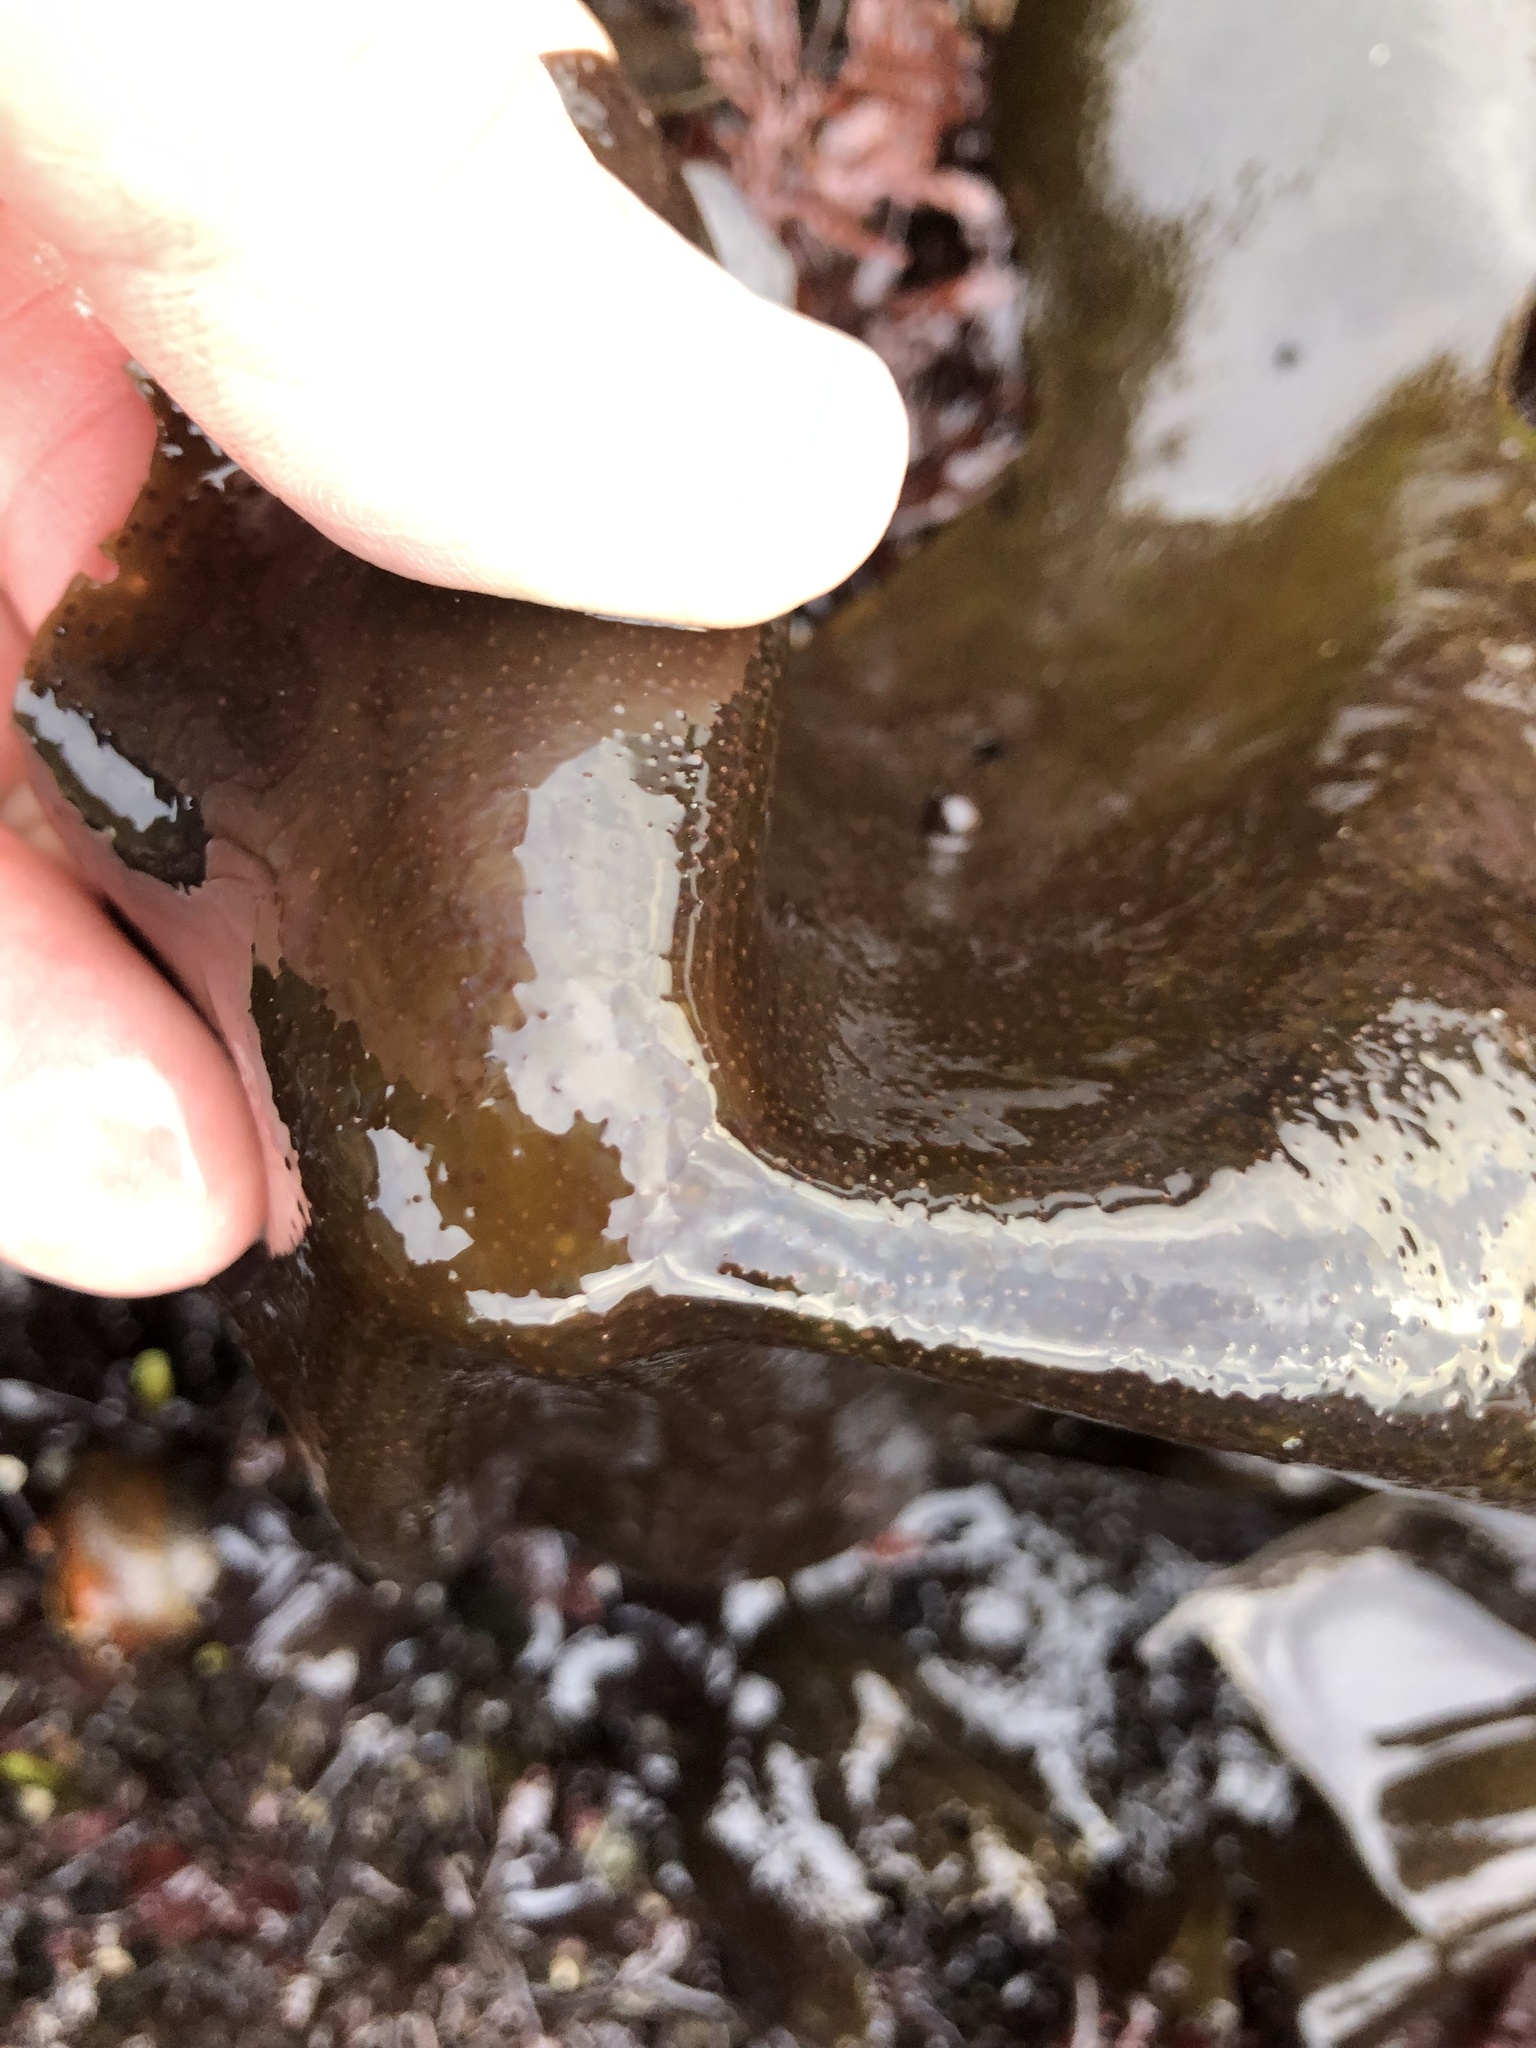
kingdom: Plantae
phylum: Rhodophyta
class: Florideophyceae
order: Gigartinales
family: Gigartinaceae
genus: Mazzaella
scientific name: Mazzaella flaccida
